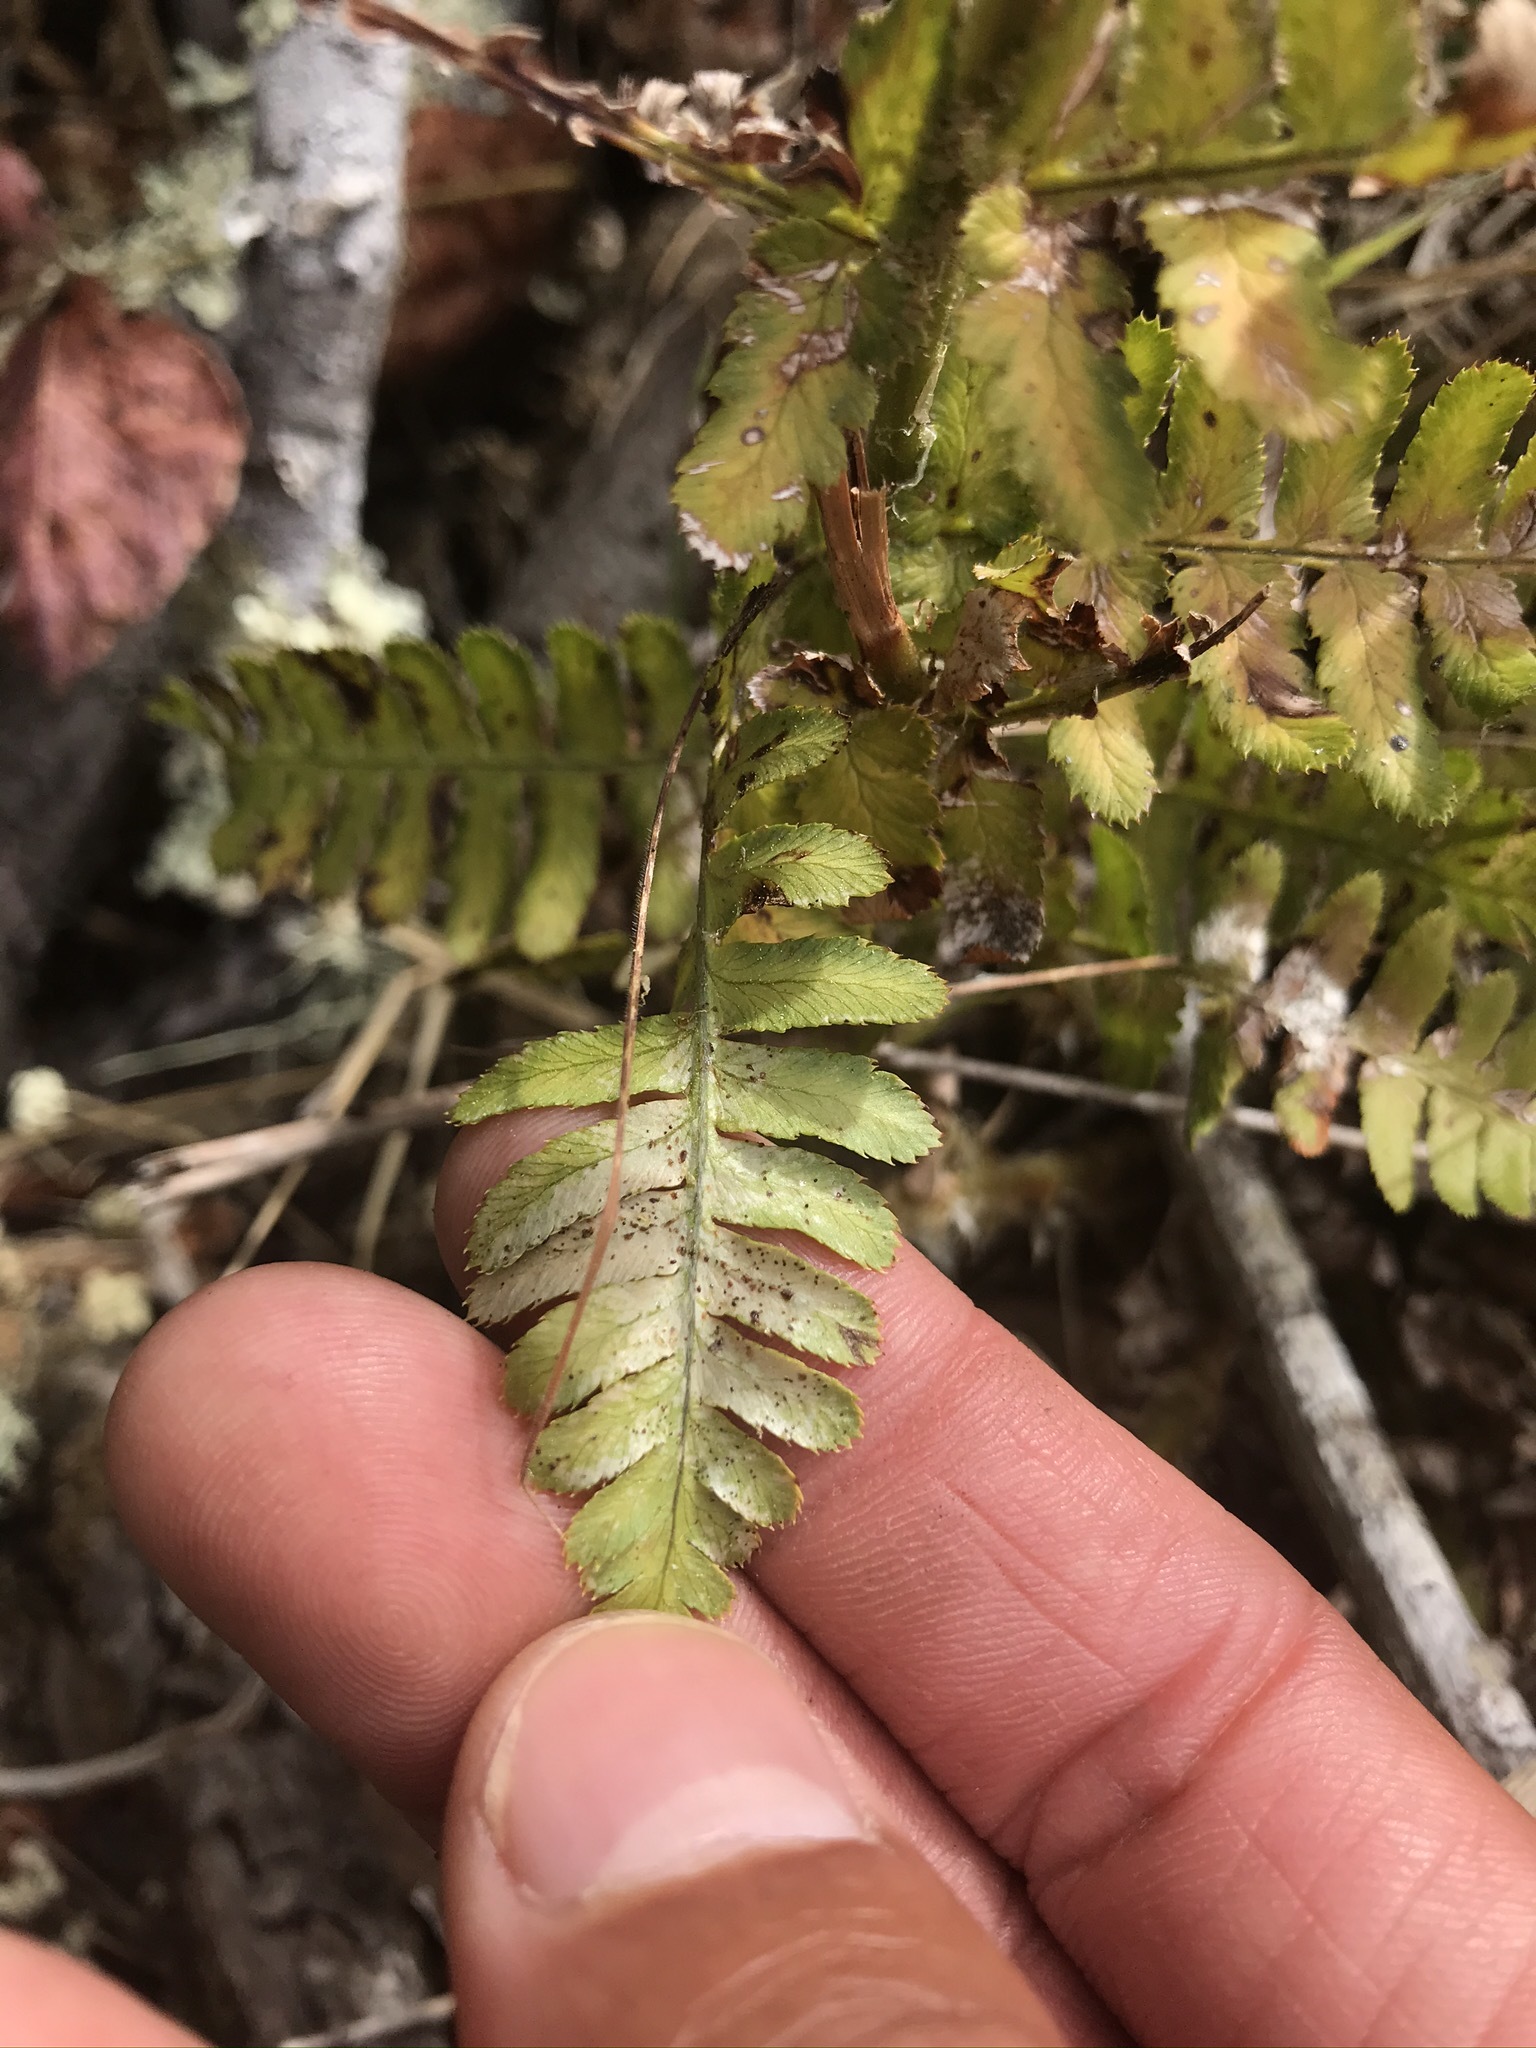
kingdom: Plantae
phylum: Tracheophyta
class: Polypodiopsida
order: Polypodiales
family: Dryopteridaceae
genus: Dryopteris
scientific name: Dryopteris arguta
